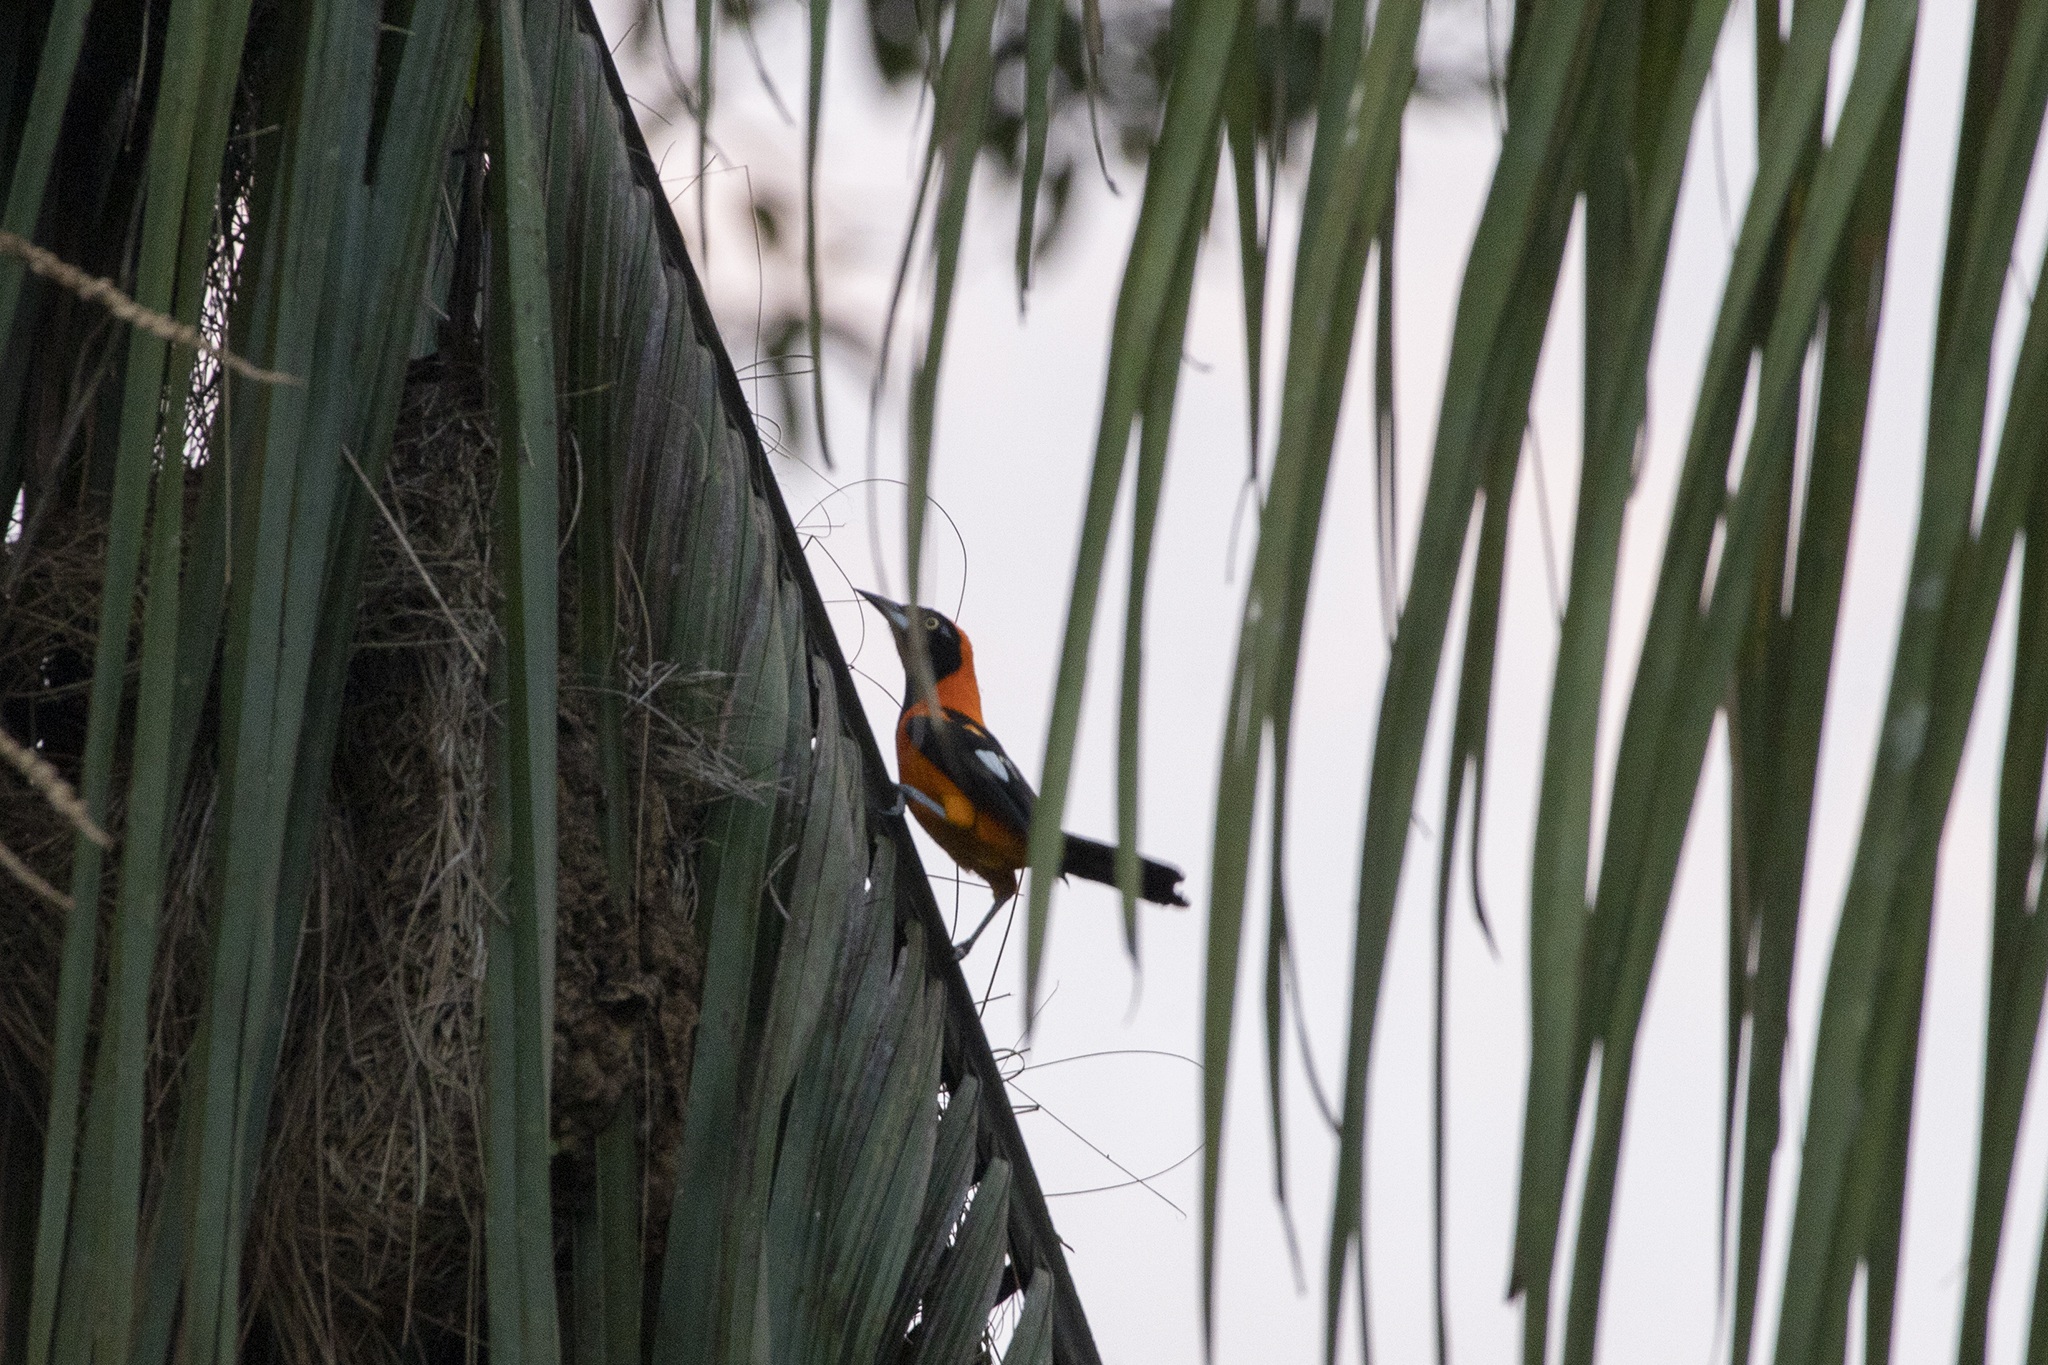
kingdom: Animalia
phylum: Chordata
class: Aves
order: Passeriformes
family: Icteridae
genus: Icterus
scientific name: Icterus icterus
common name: Venezuelan troupial
